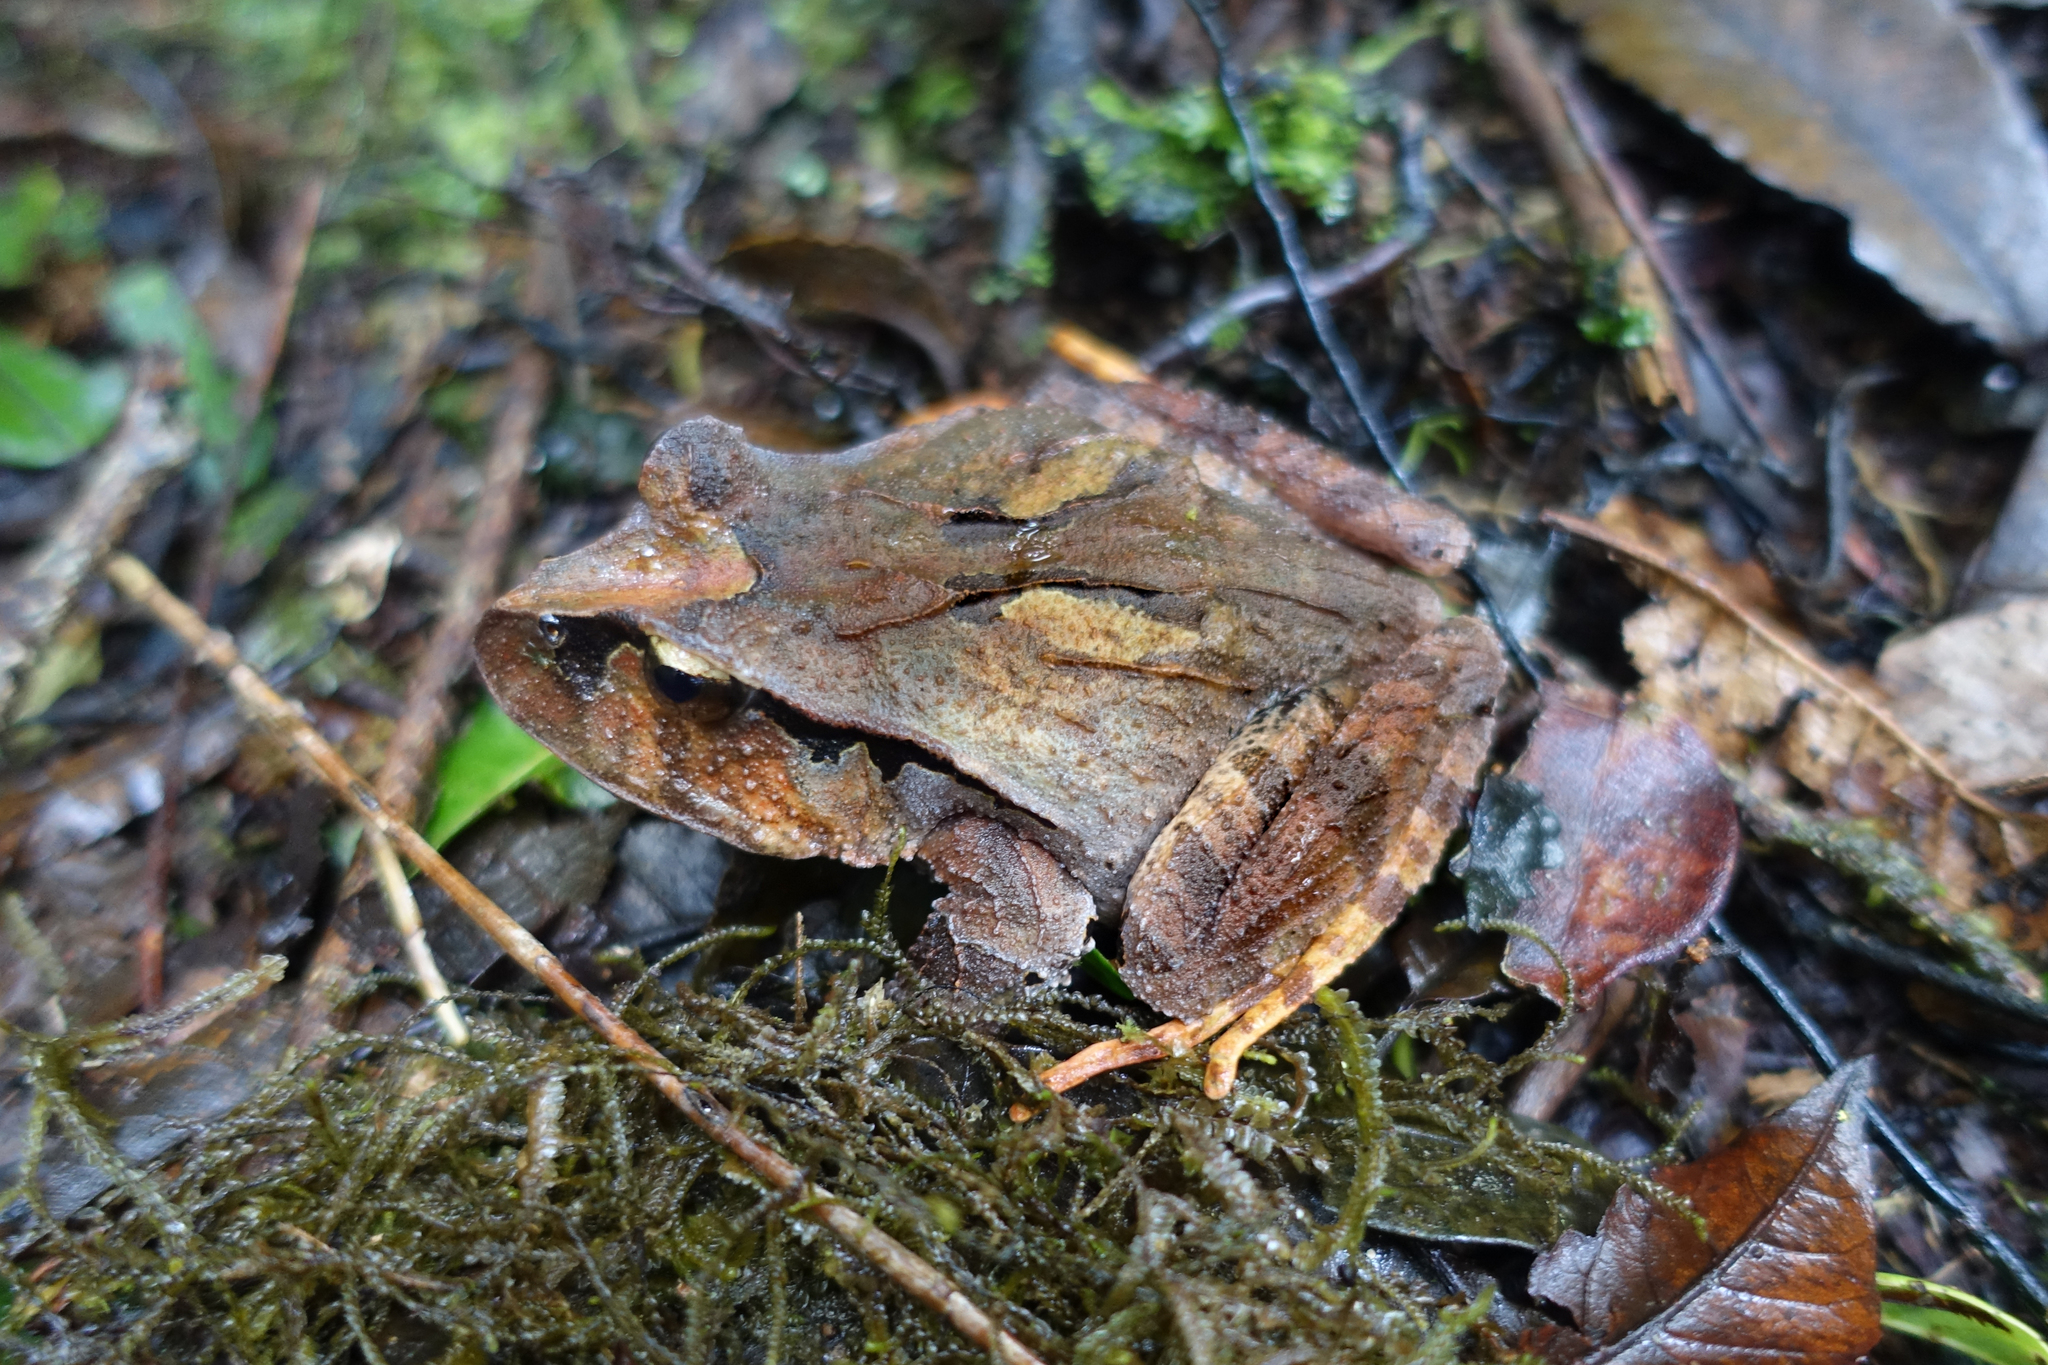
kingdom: Animalia
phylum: Chordata
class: Amphibia
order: Anura
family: Limnodynastidae
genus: Platyplectrum
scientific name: Platyplectrum
